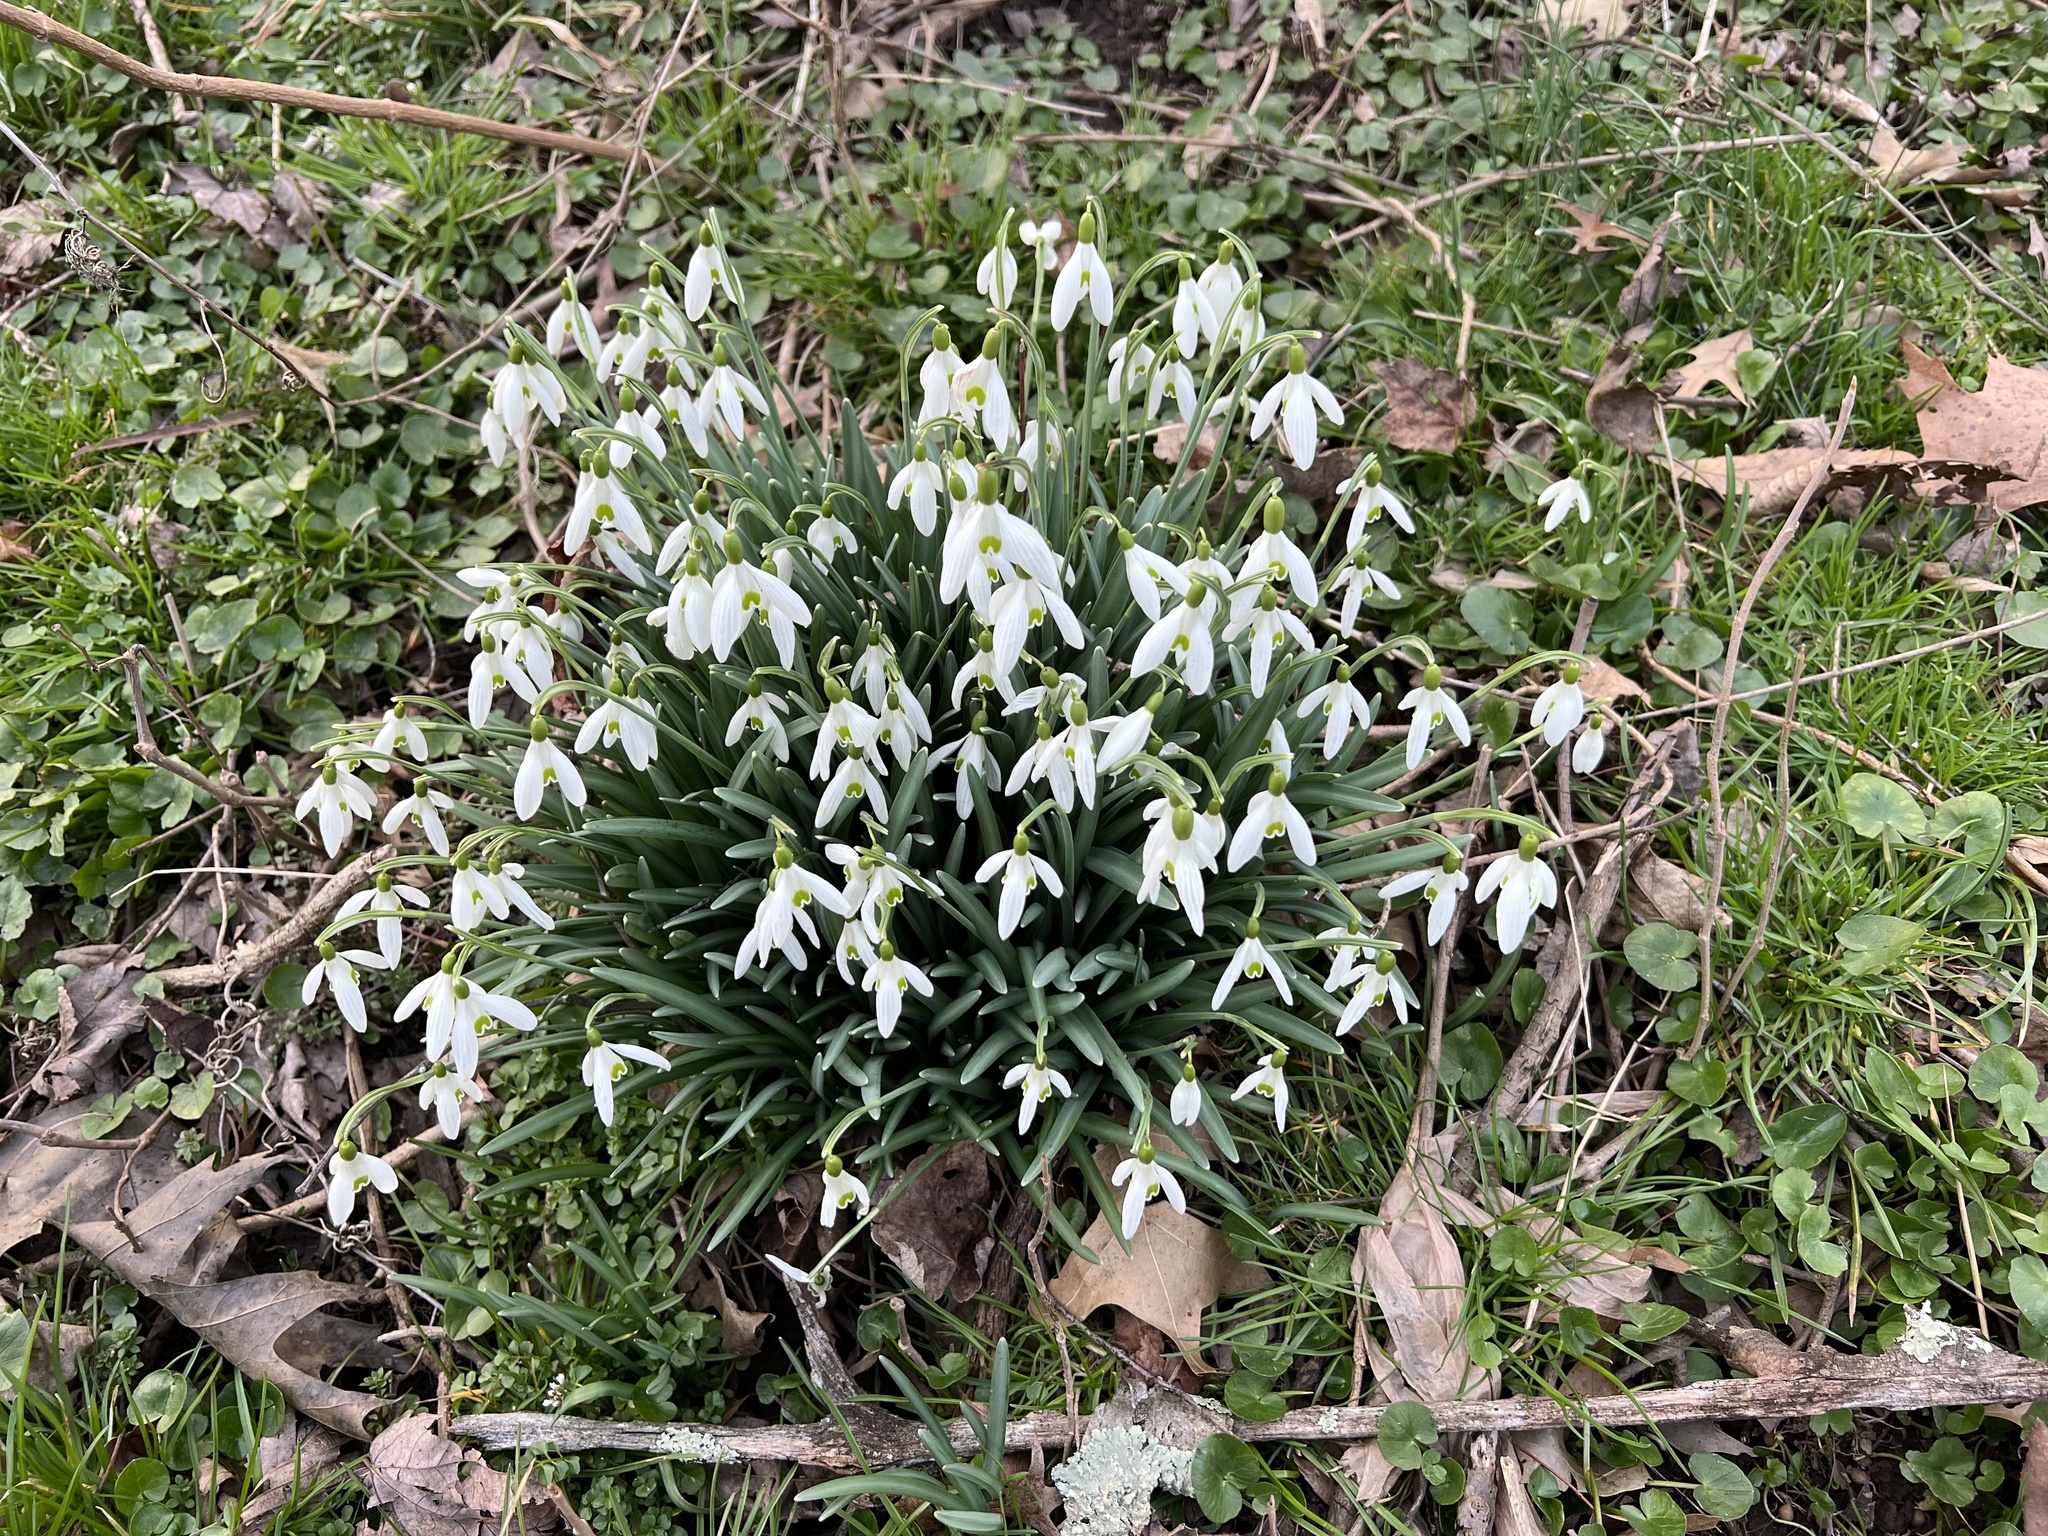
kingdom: Plantae
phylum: Tracheophyta
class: Liliopsida
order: Asparagales
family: Amaryllidaceae
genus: Galanthus
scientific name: Galanthus nivalis
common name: Snowdrop
